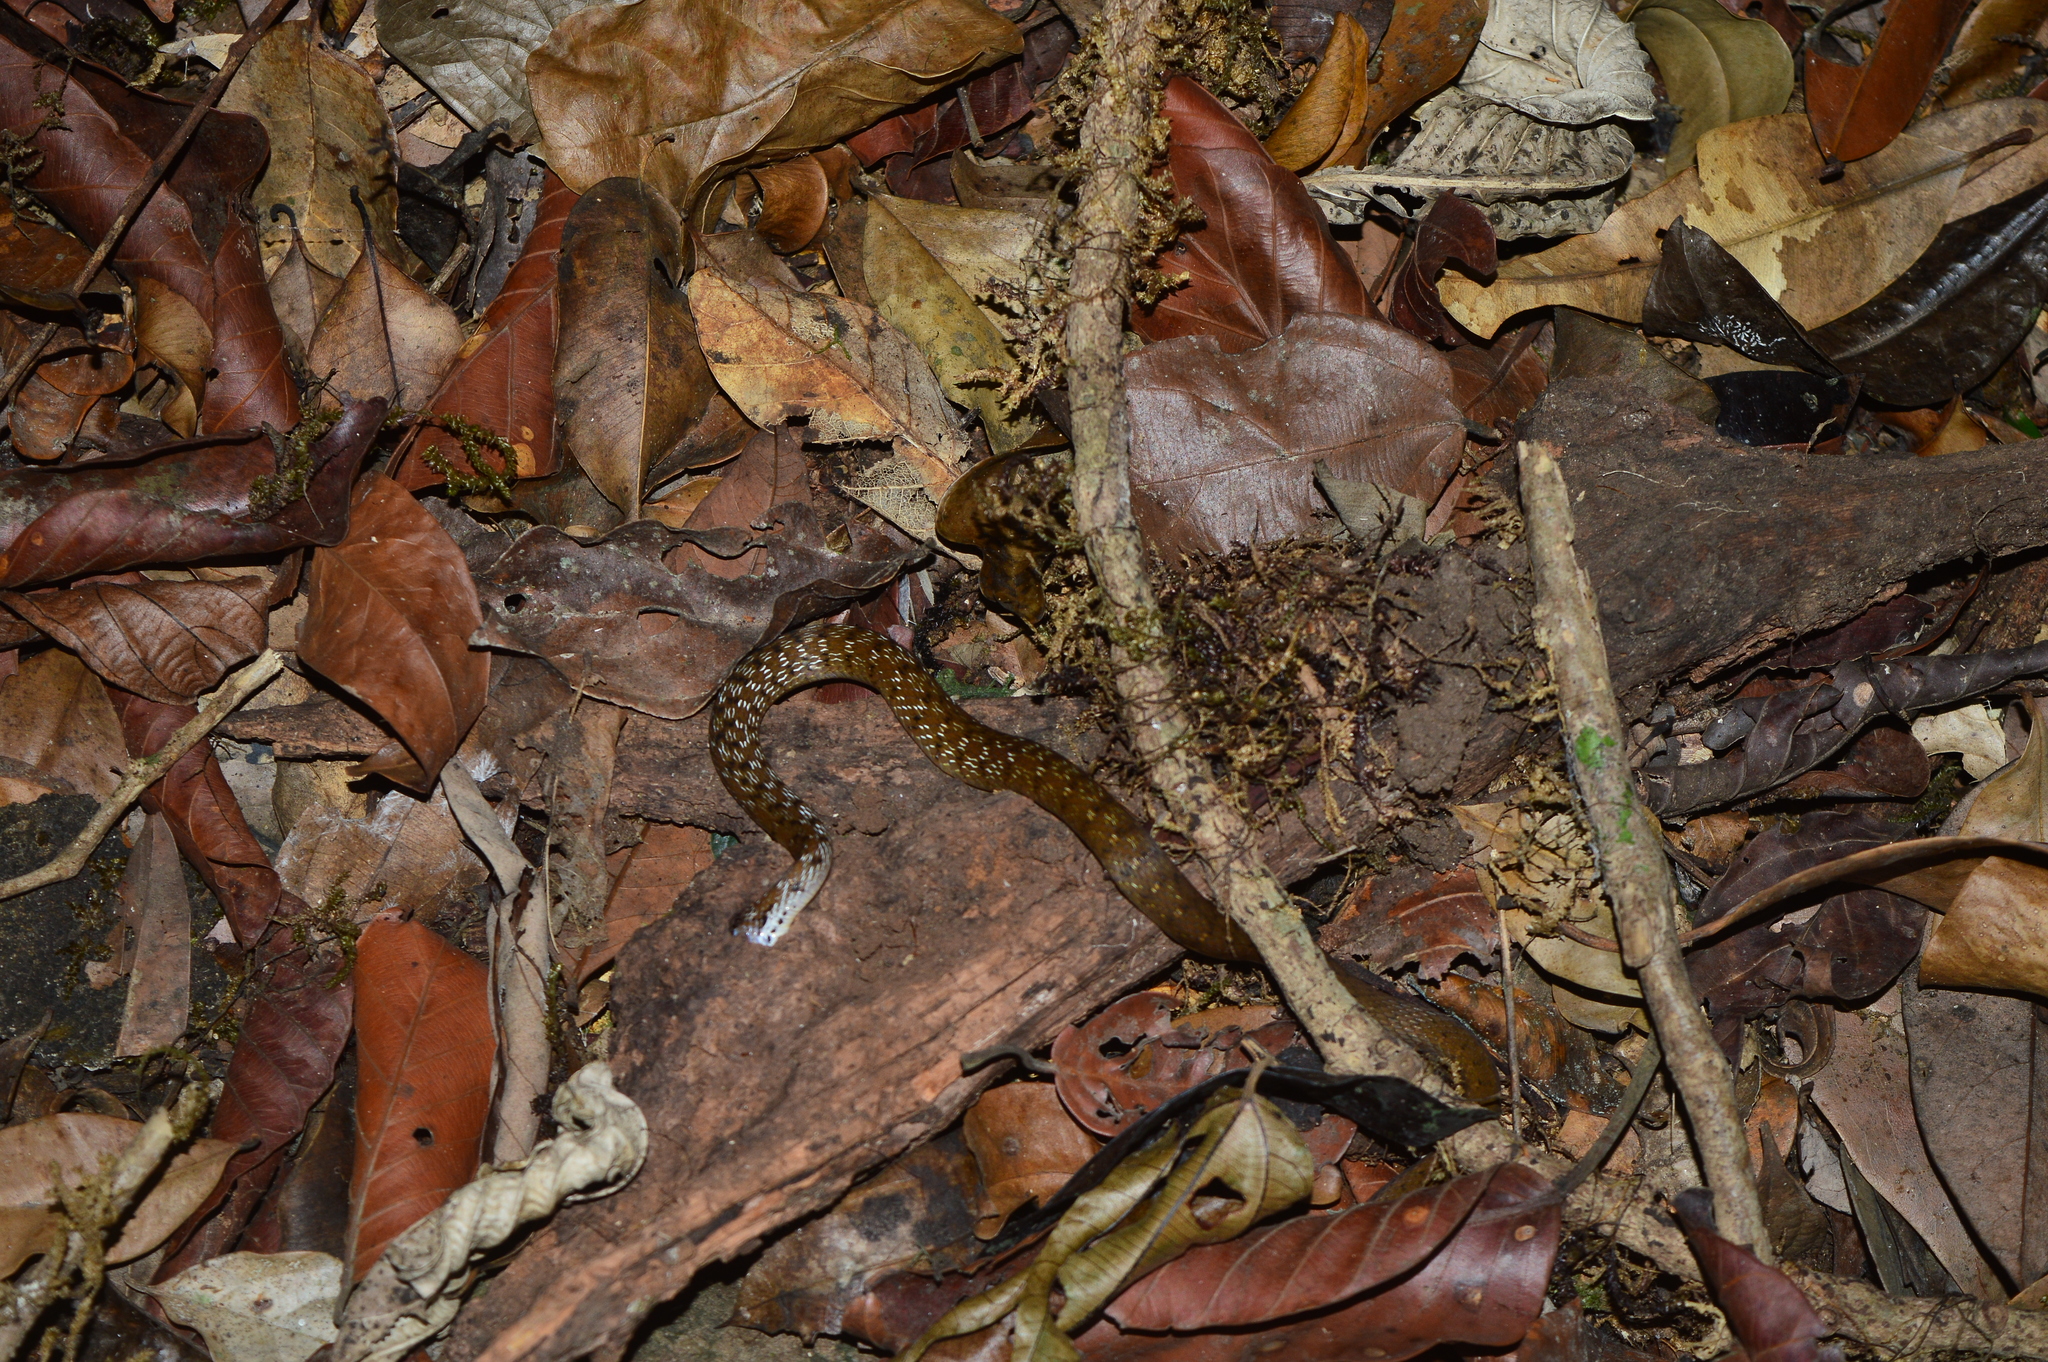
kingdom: Animalia
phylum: Chordata
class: Squamata
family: Colubridae
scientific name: Colubridae
